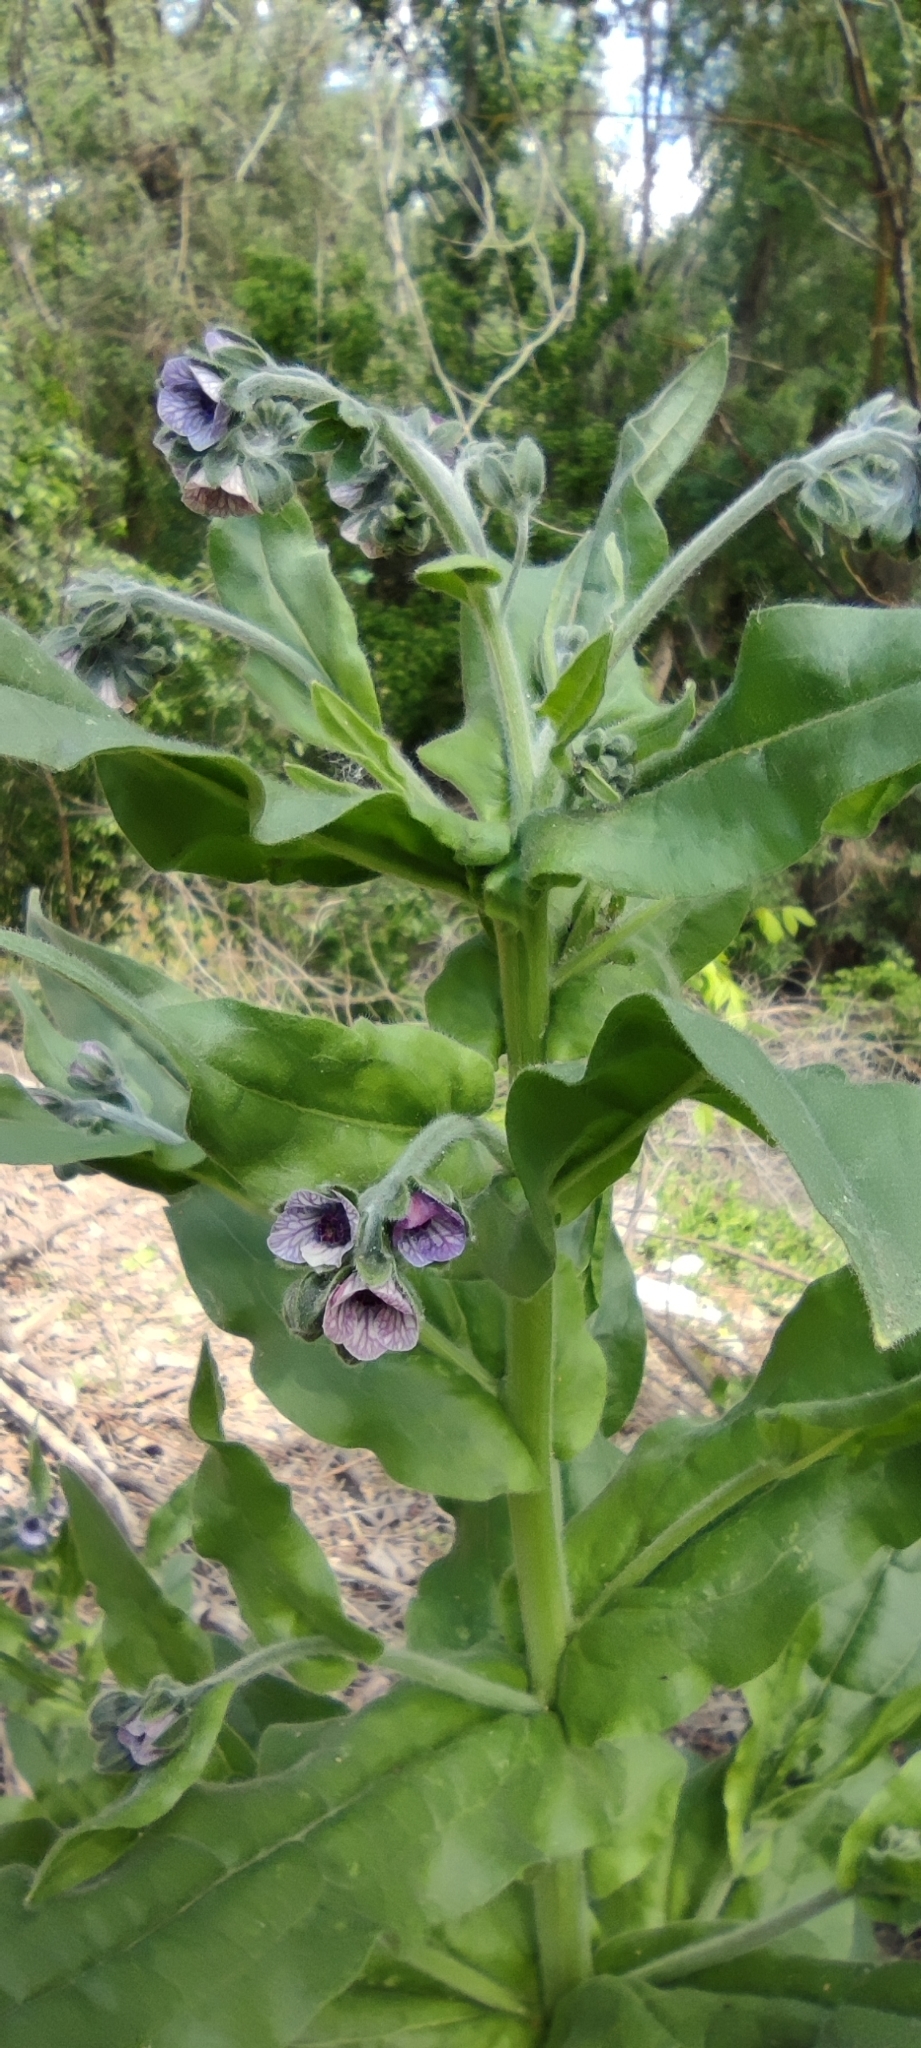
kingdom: Plantae
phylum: Tracheophyta
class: Magnoliopsida
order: Boraginales
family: Boraginaceae
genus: Cynoglossum
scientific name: Cynoglossum creticum
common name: Blue hound's tongue
